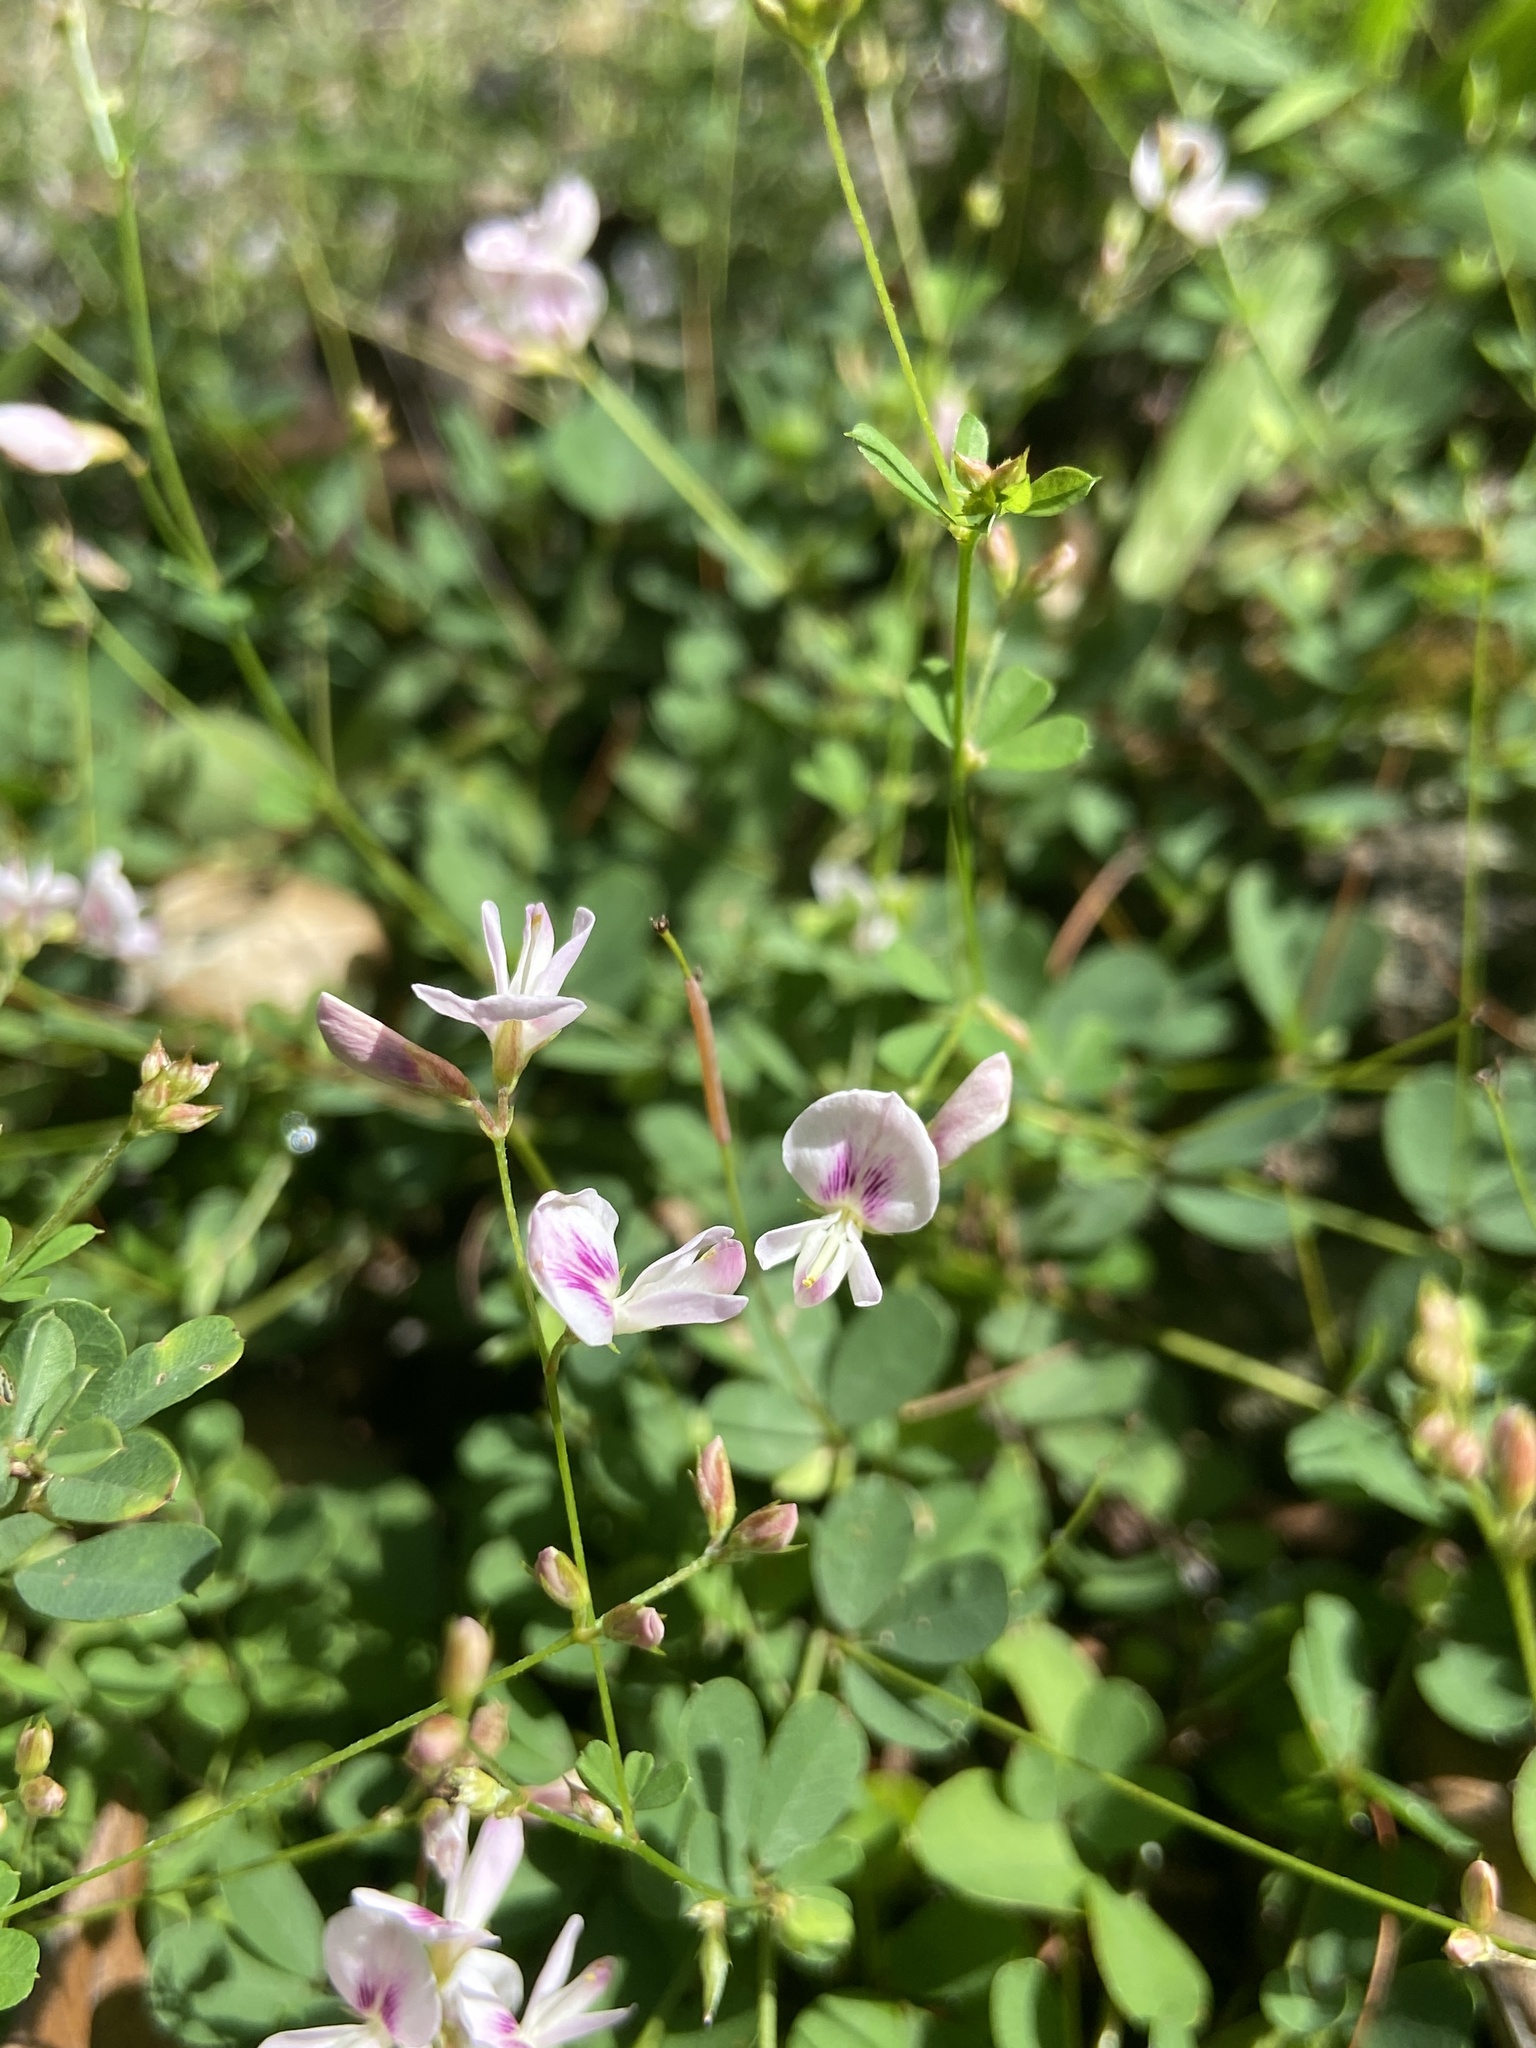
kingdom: Plantae
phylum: Tracheophyta
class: Magnoliopsida
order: Fabales
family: Fabaceae
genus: Lespedeza
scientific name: Lespedeza repens
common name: Creeping bush-clover
